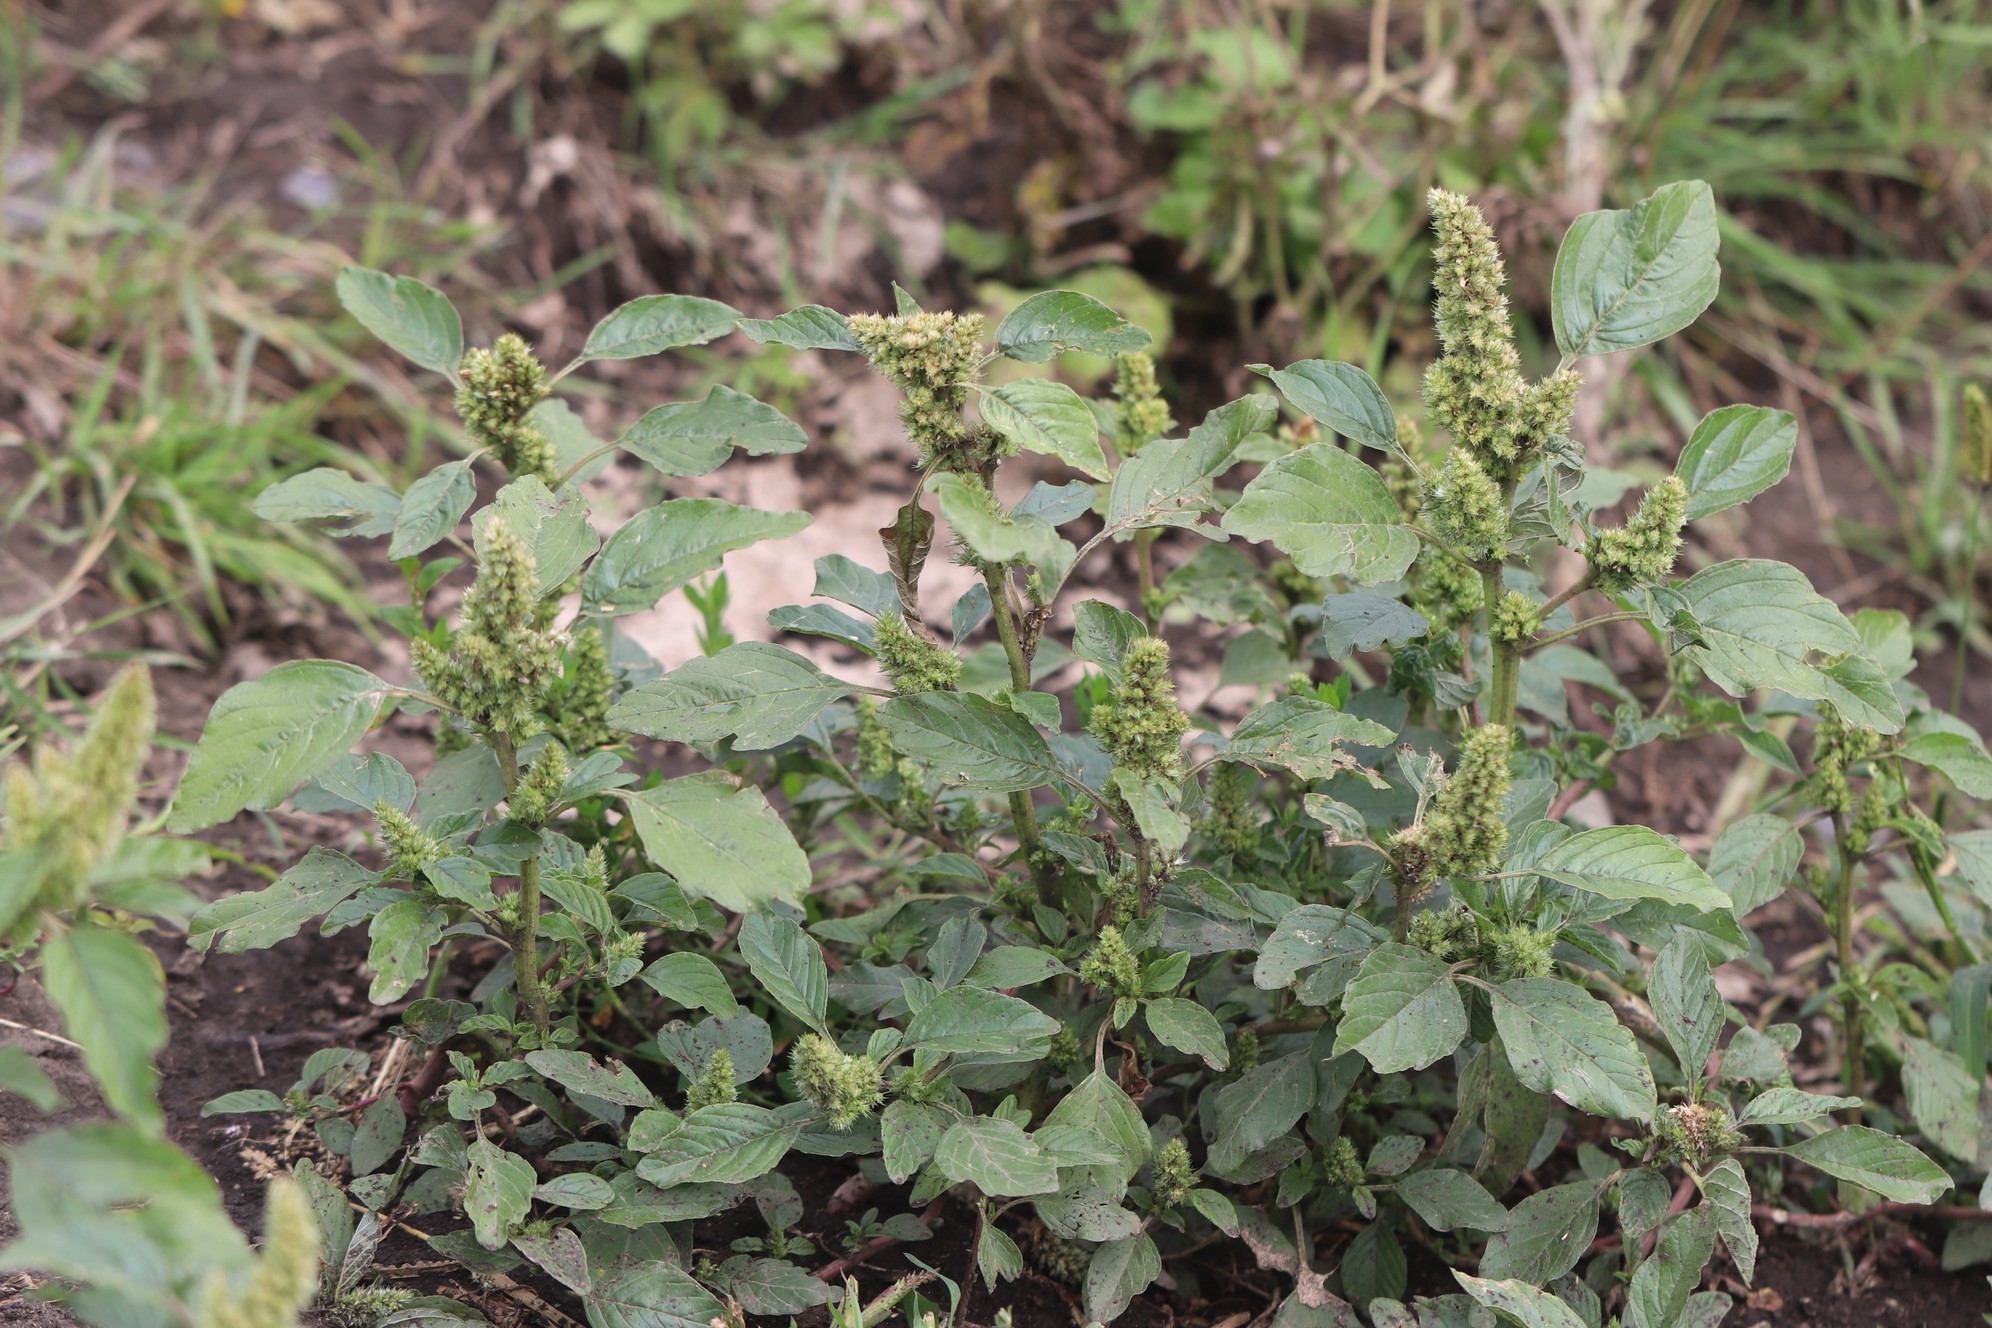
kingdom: Plantae
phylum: Tracheophyta
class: Magnoliopsida
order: Caryophyllales
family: Amaranthaceae
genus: Amaranthus
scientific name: Amaranthus retroflexus
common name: Redroot amaranth
